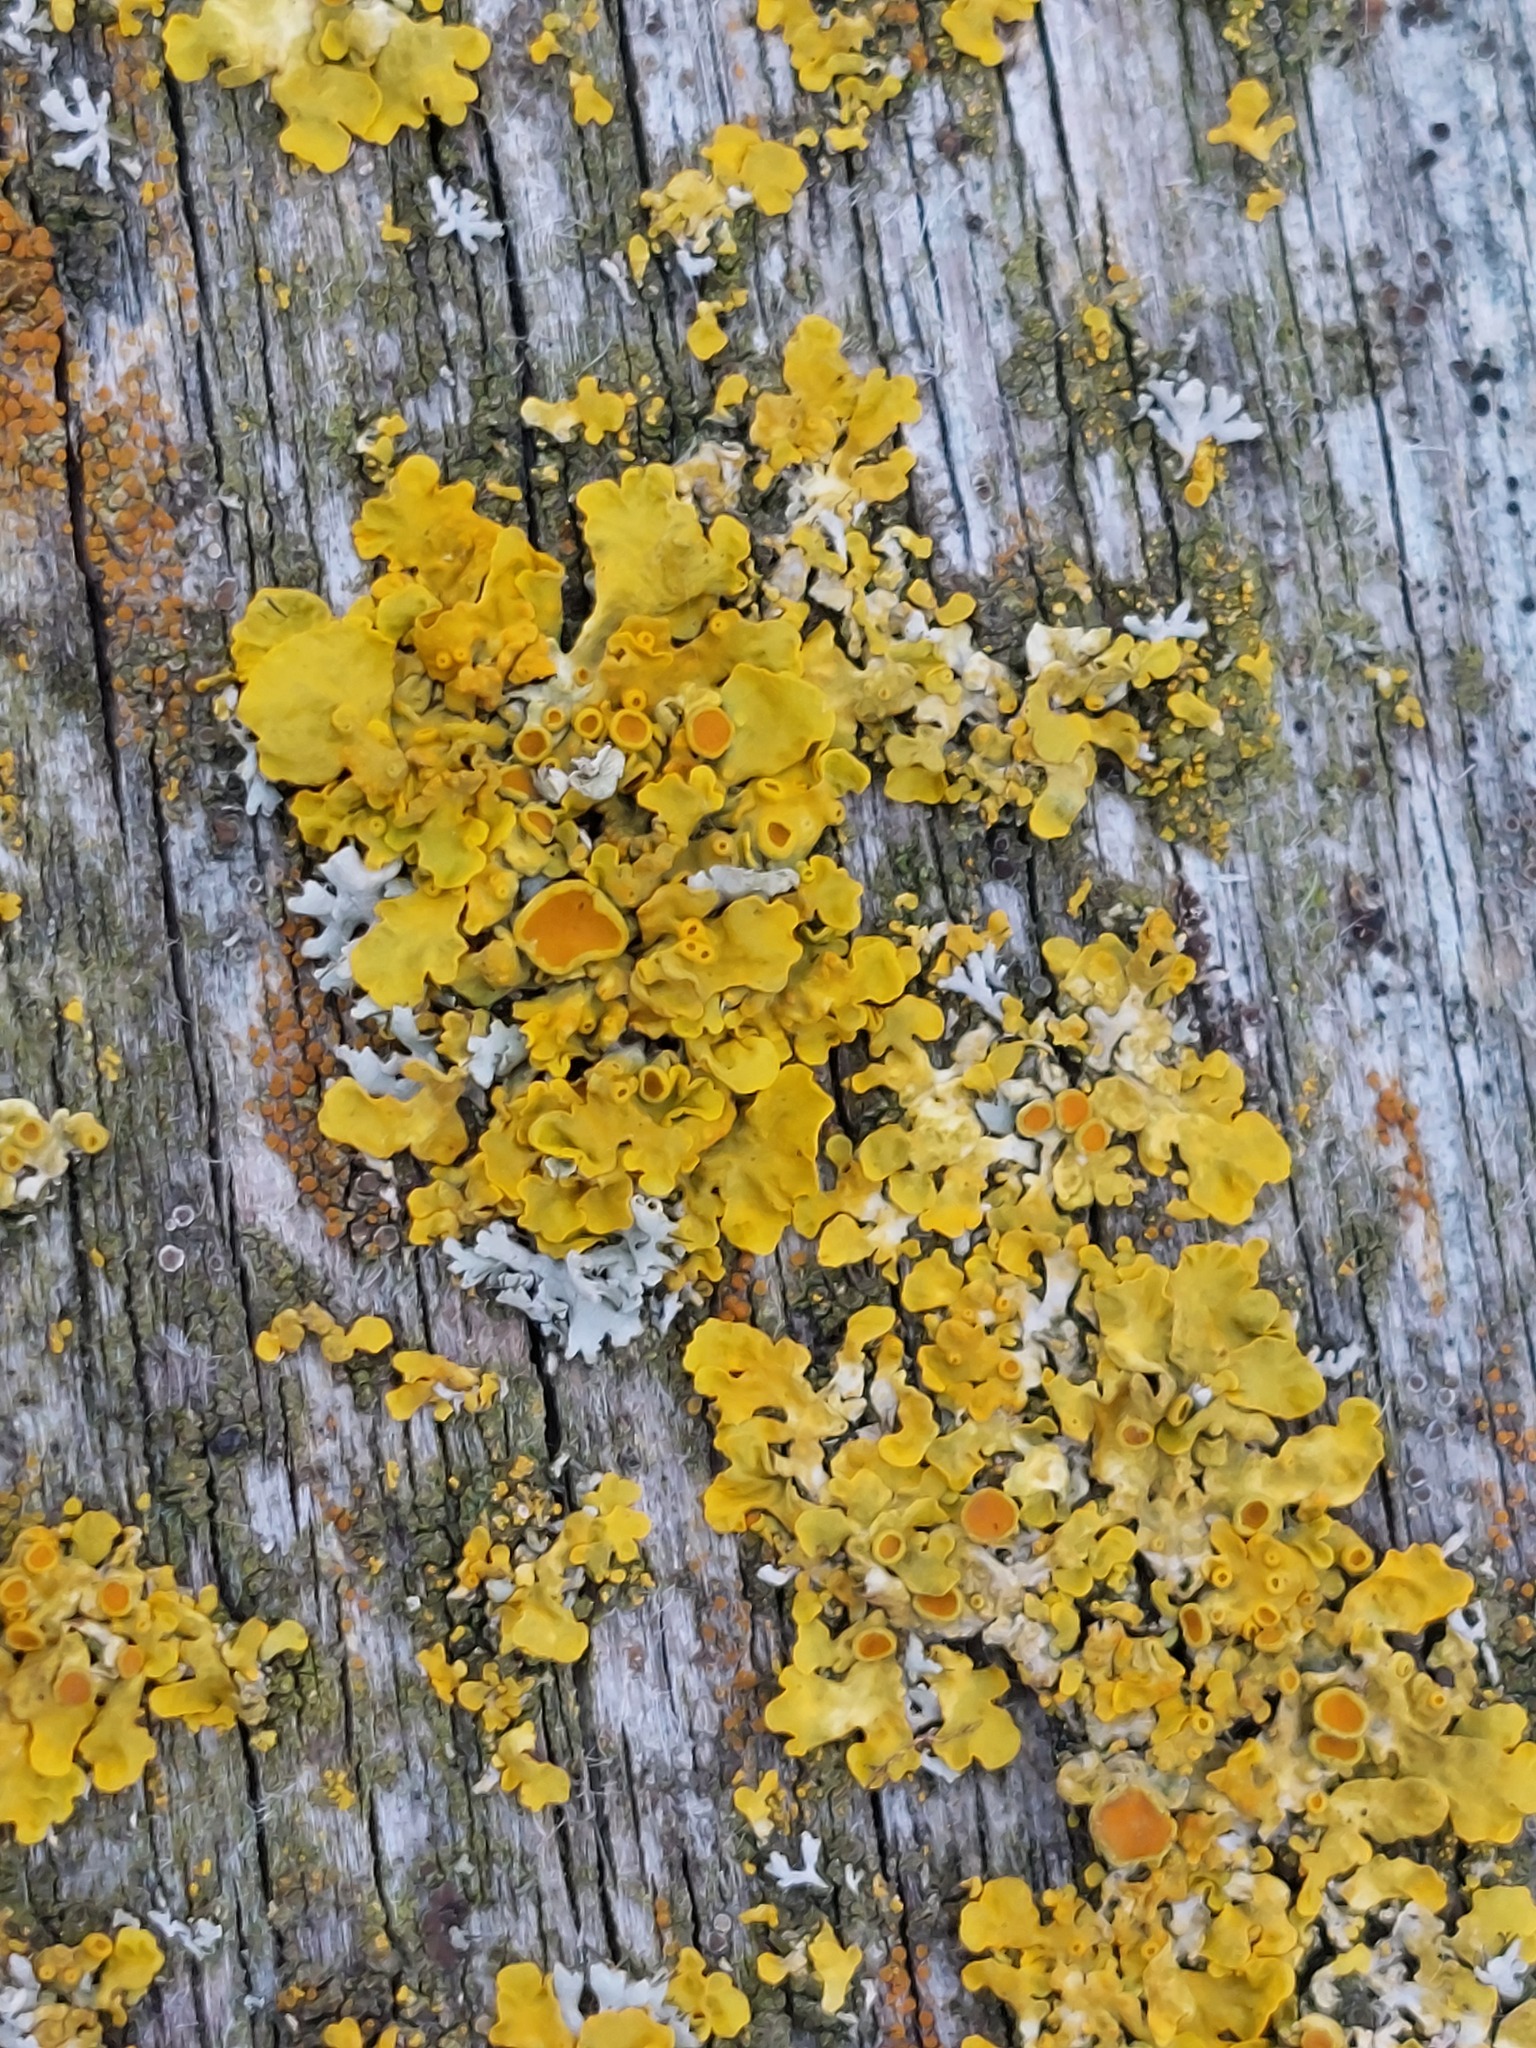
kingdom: Fungi
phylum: Ascomycota
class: Lecanoromycetes
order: Teloschistales
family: Teloschistaceae
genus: Xanthoria
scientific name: Xanthoria parietina
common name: Common orange lichen
